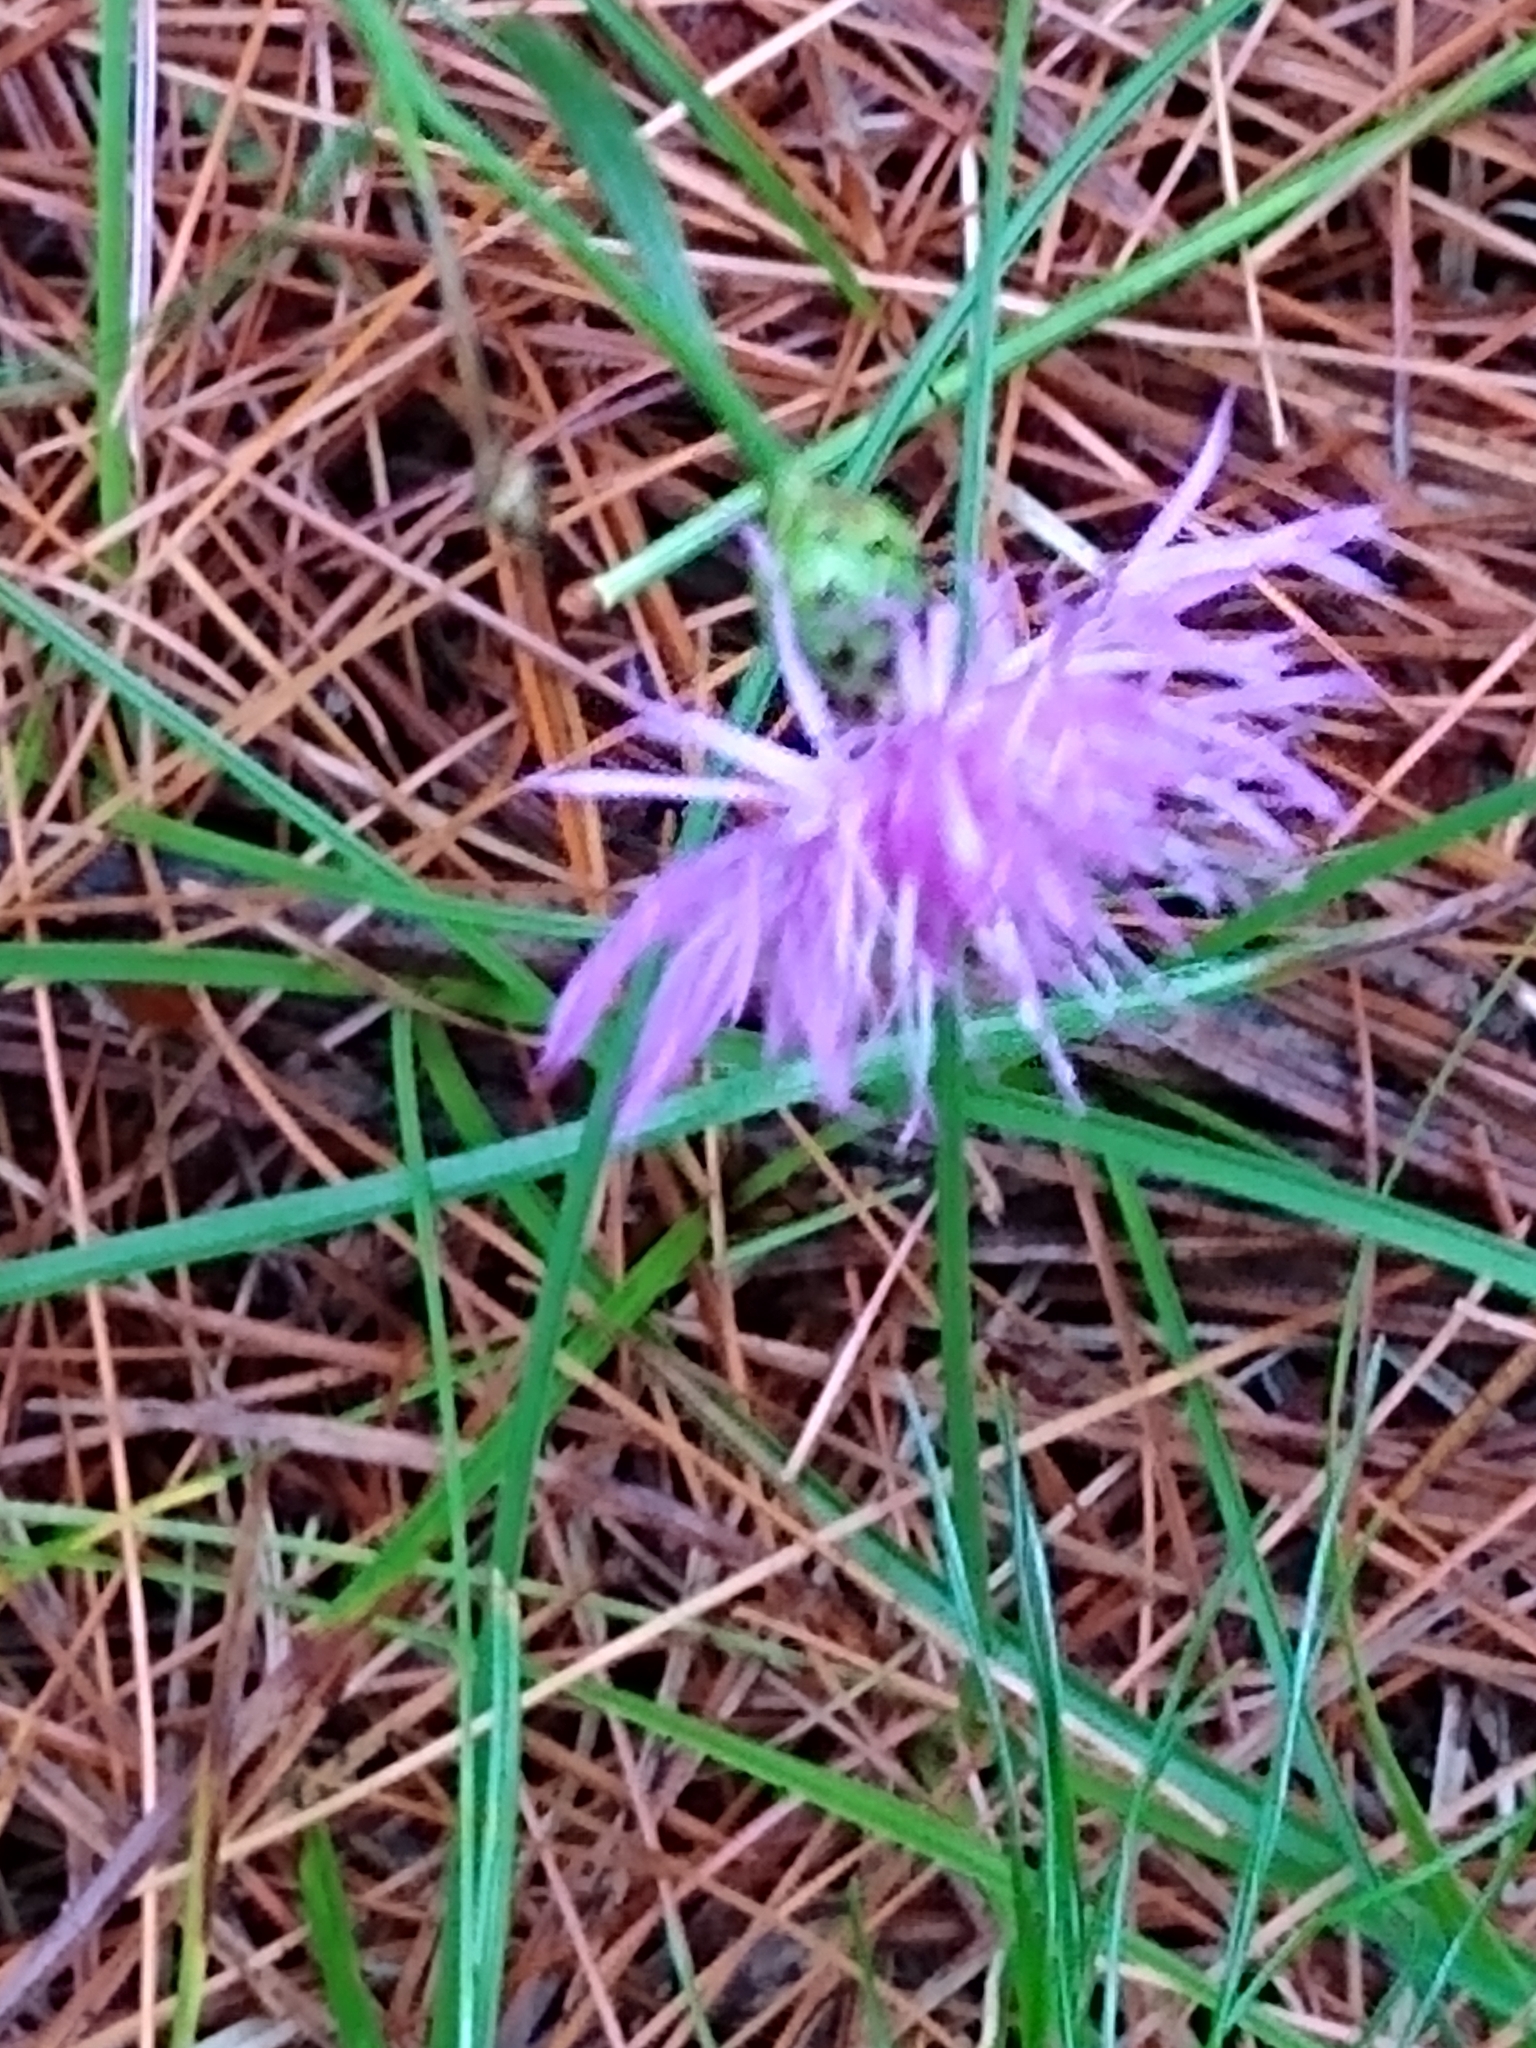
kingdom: Plantae
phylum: Tracheophyta
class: Magnoliopsida
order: Asterales
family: Asteraceae
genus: Centaurea
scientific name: Centaurea stoebe
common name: Spotted knapweed
